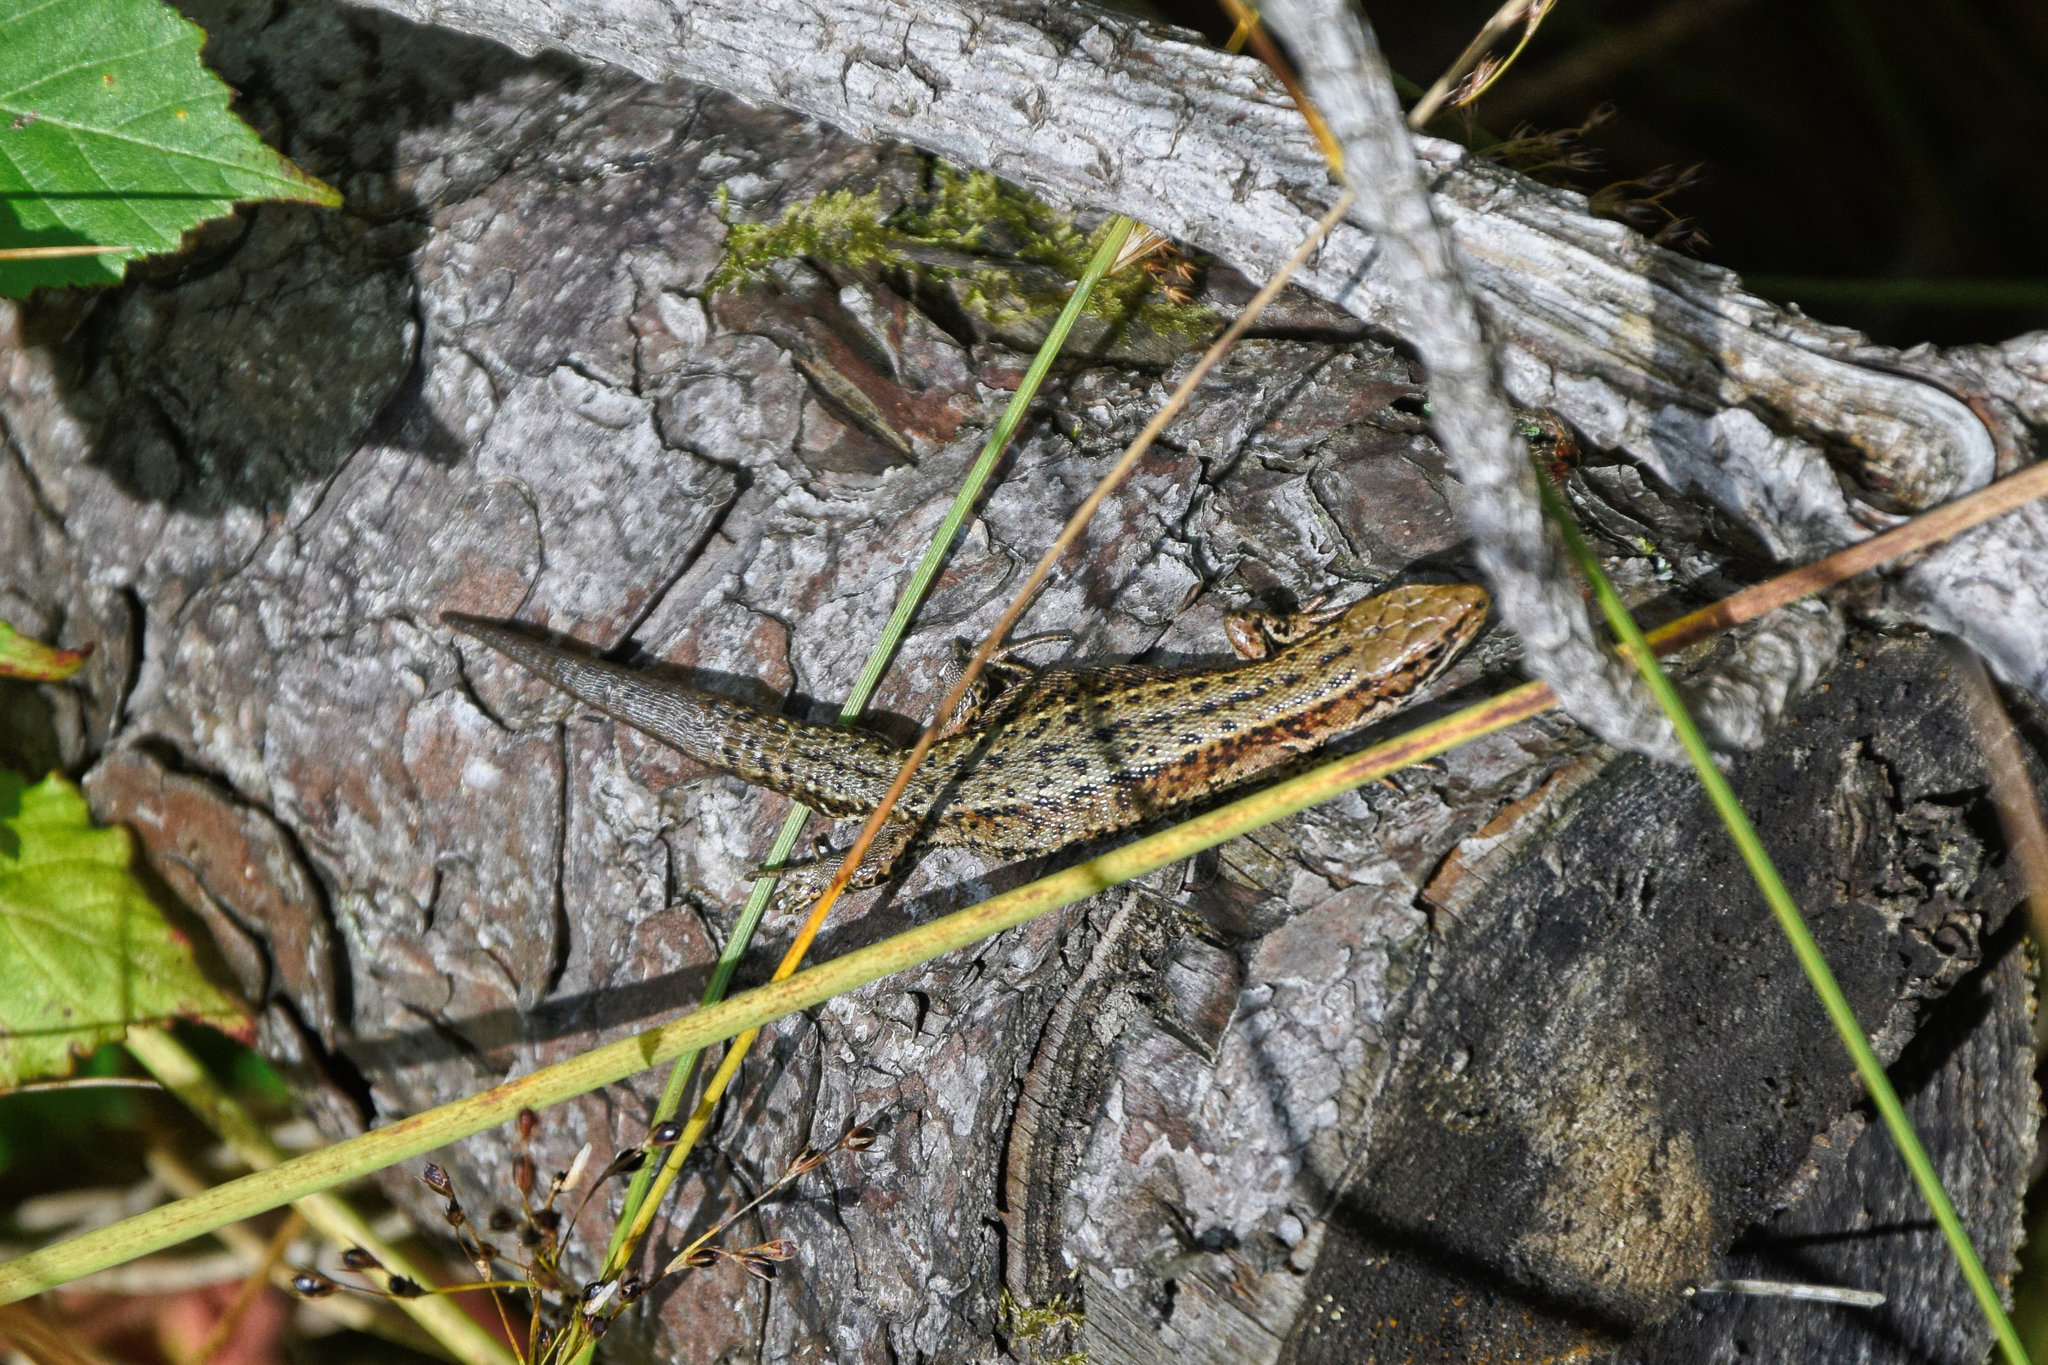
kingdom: Animalia
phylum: Chordata
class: Squamata
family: Lacertidae
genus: Zootoca
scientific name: Zootoca vivipara
